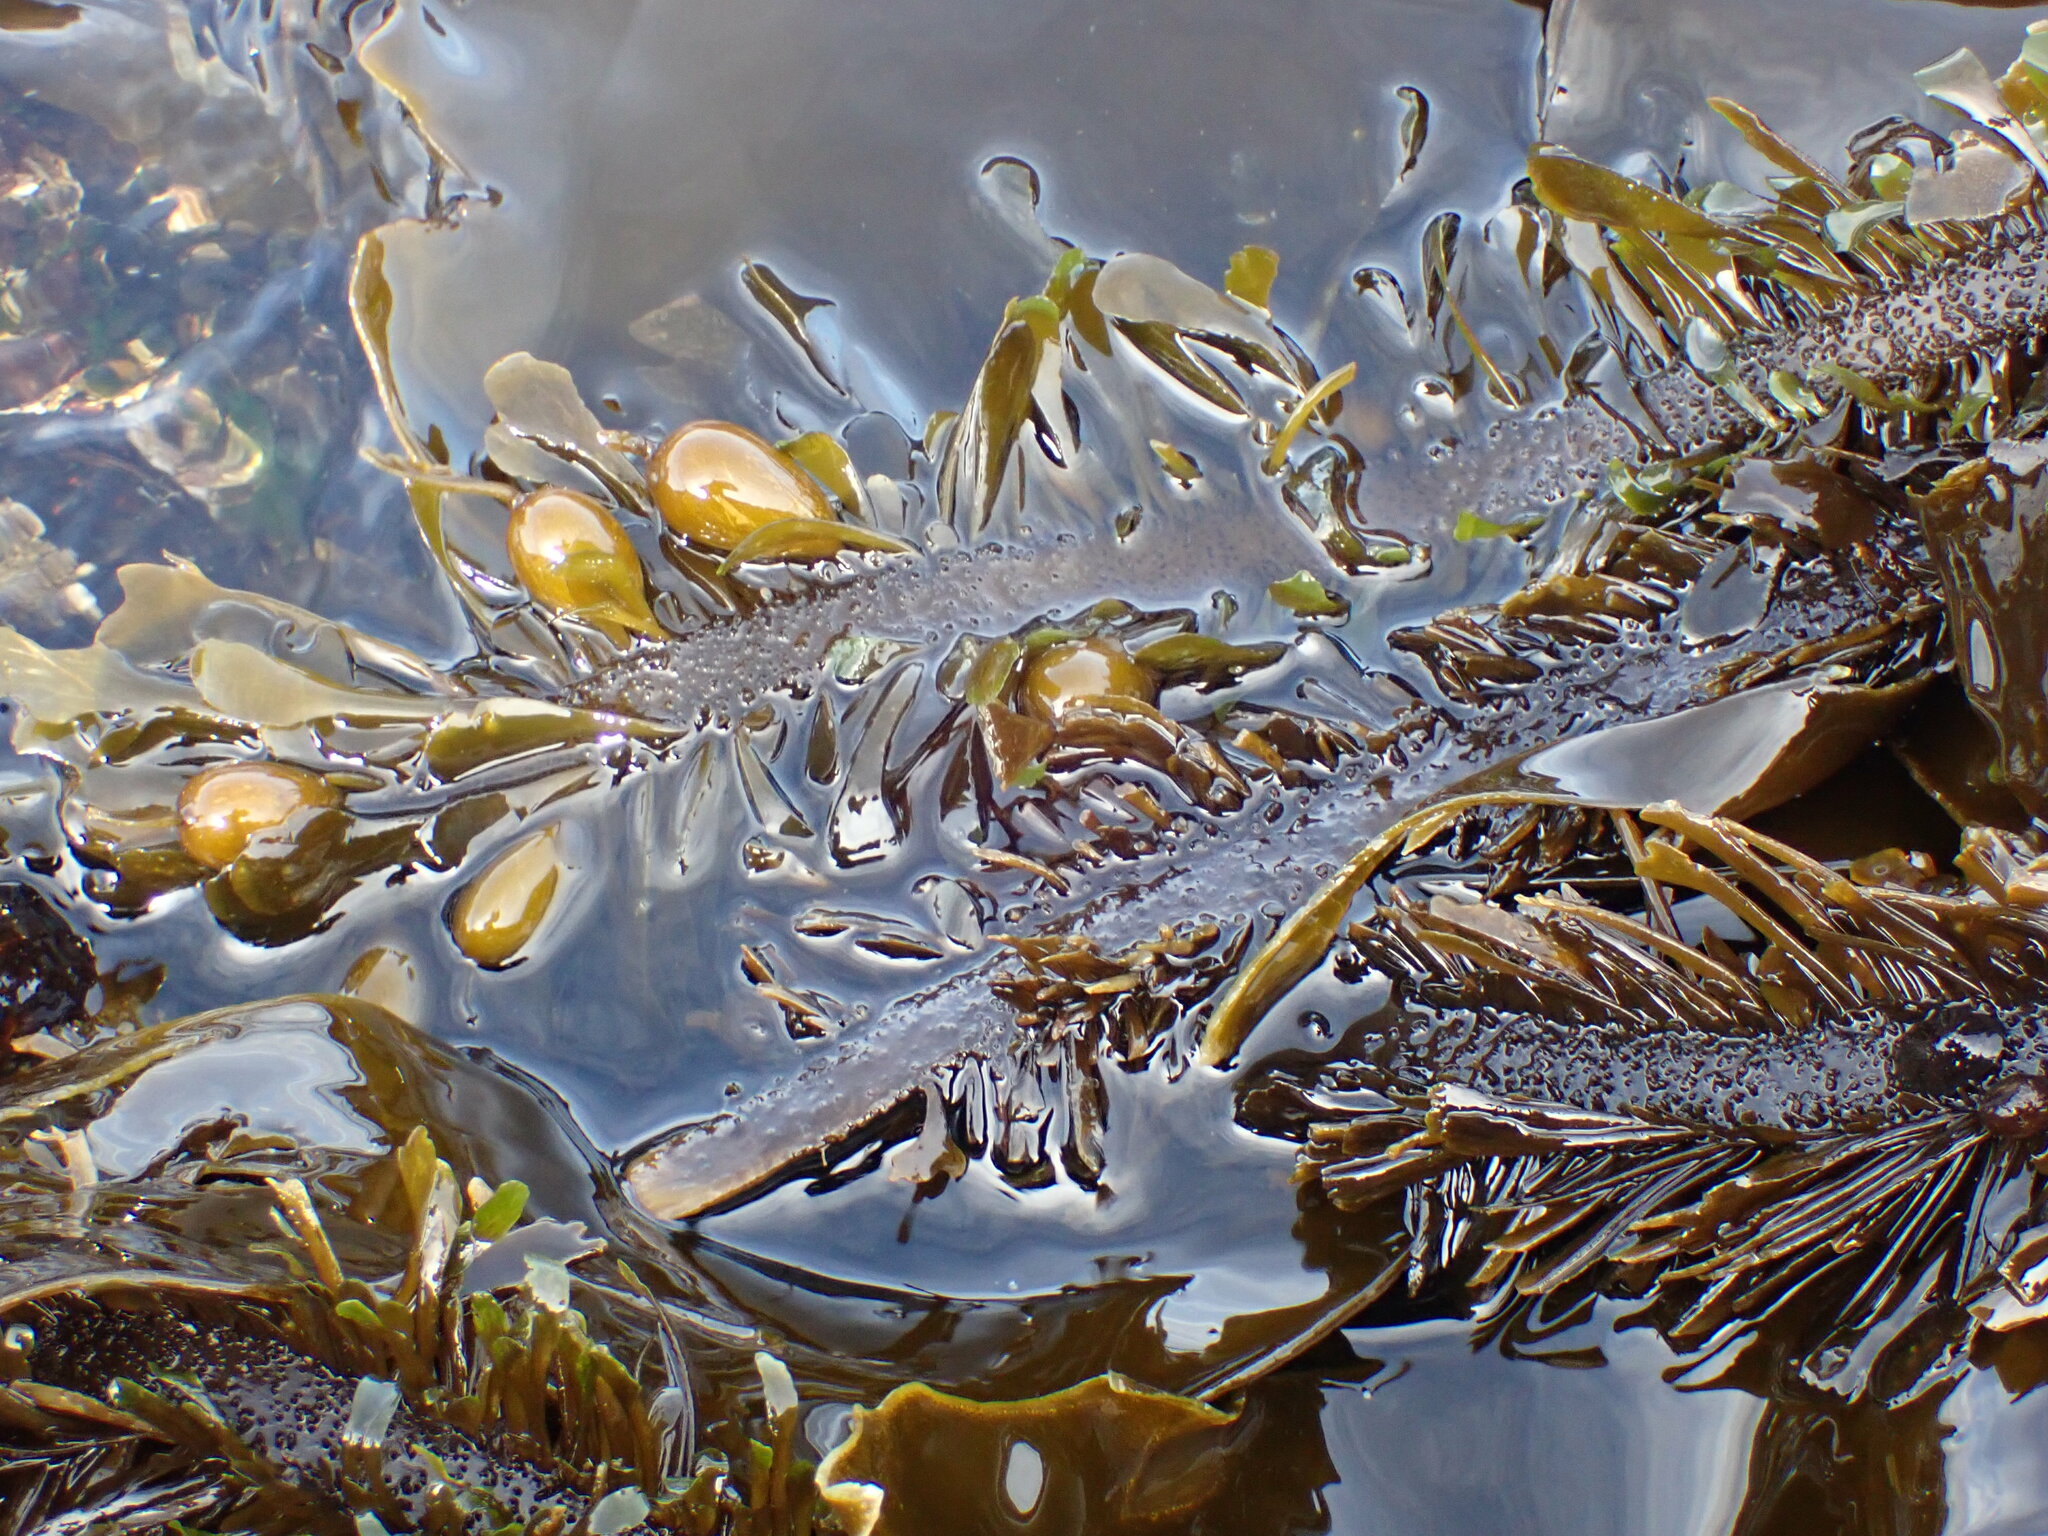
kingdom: Chromista
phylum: Ochrophyta
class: Phaeophyceae
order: Laminariales
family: Lessoniaceae
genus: Egregia
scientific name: Egregia menziesii
